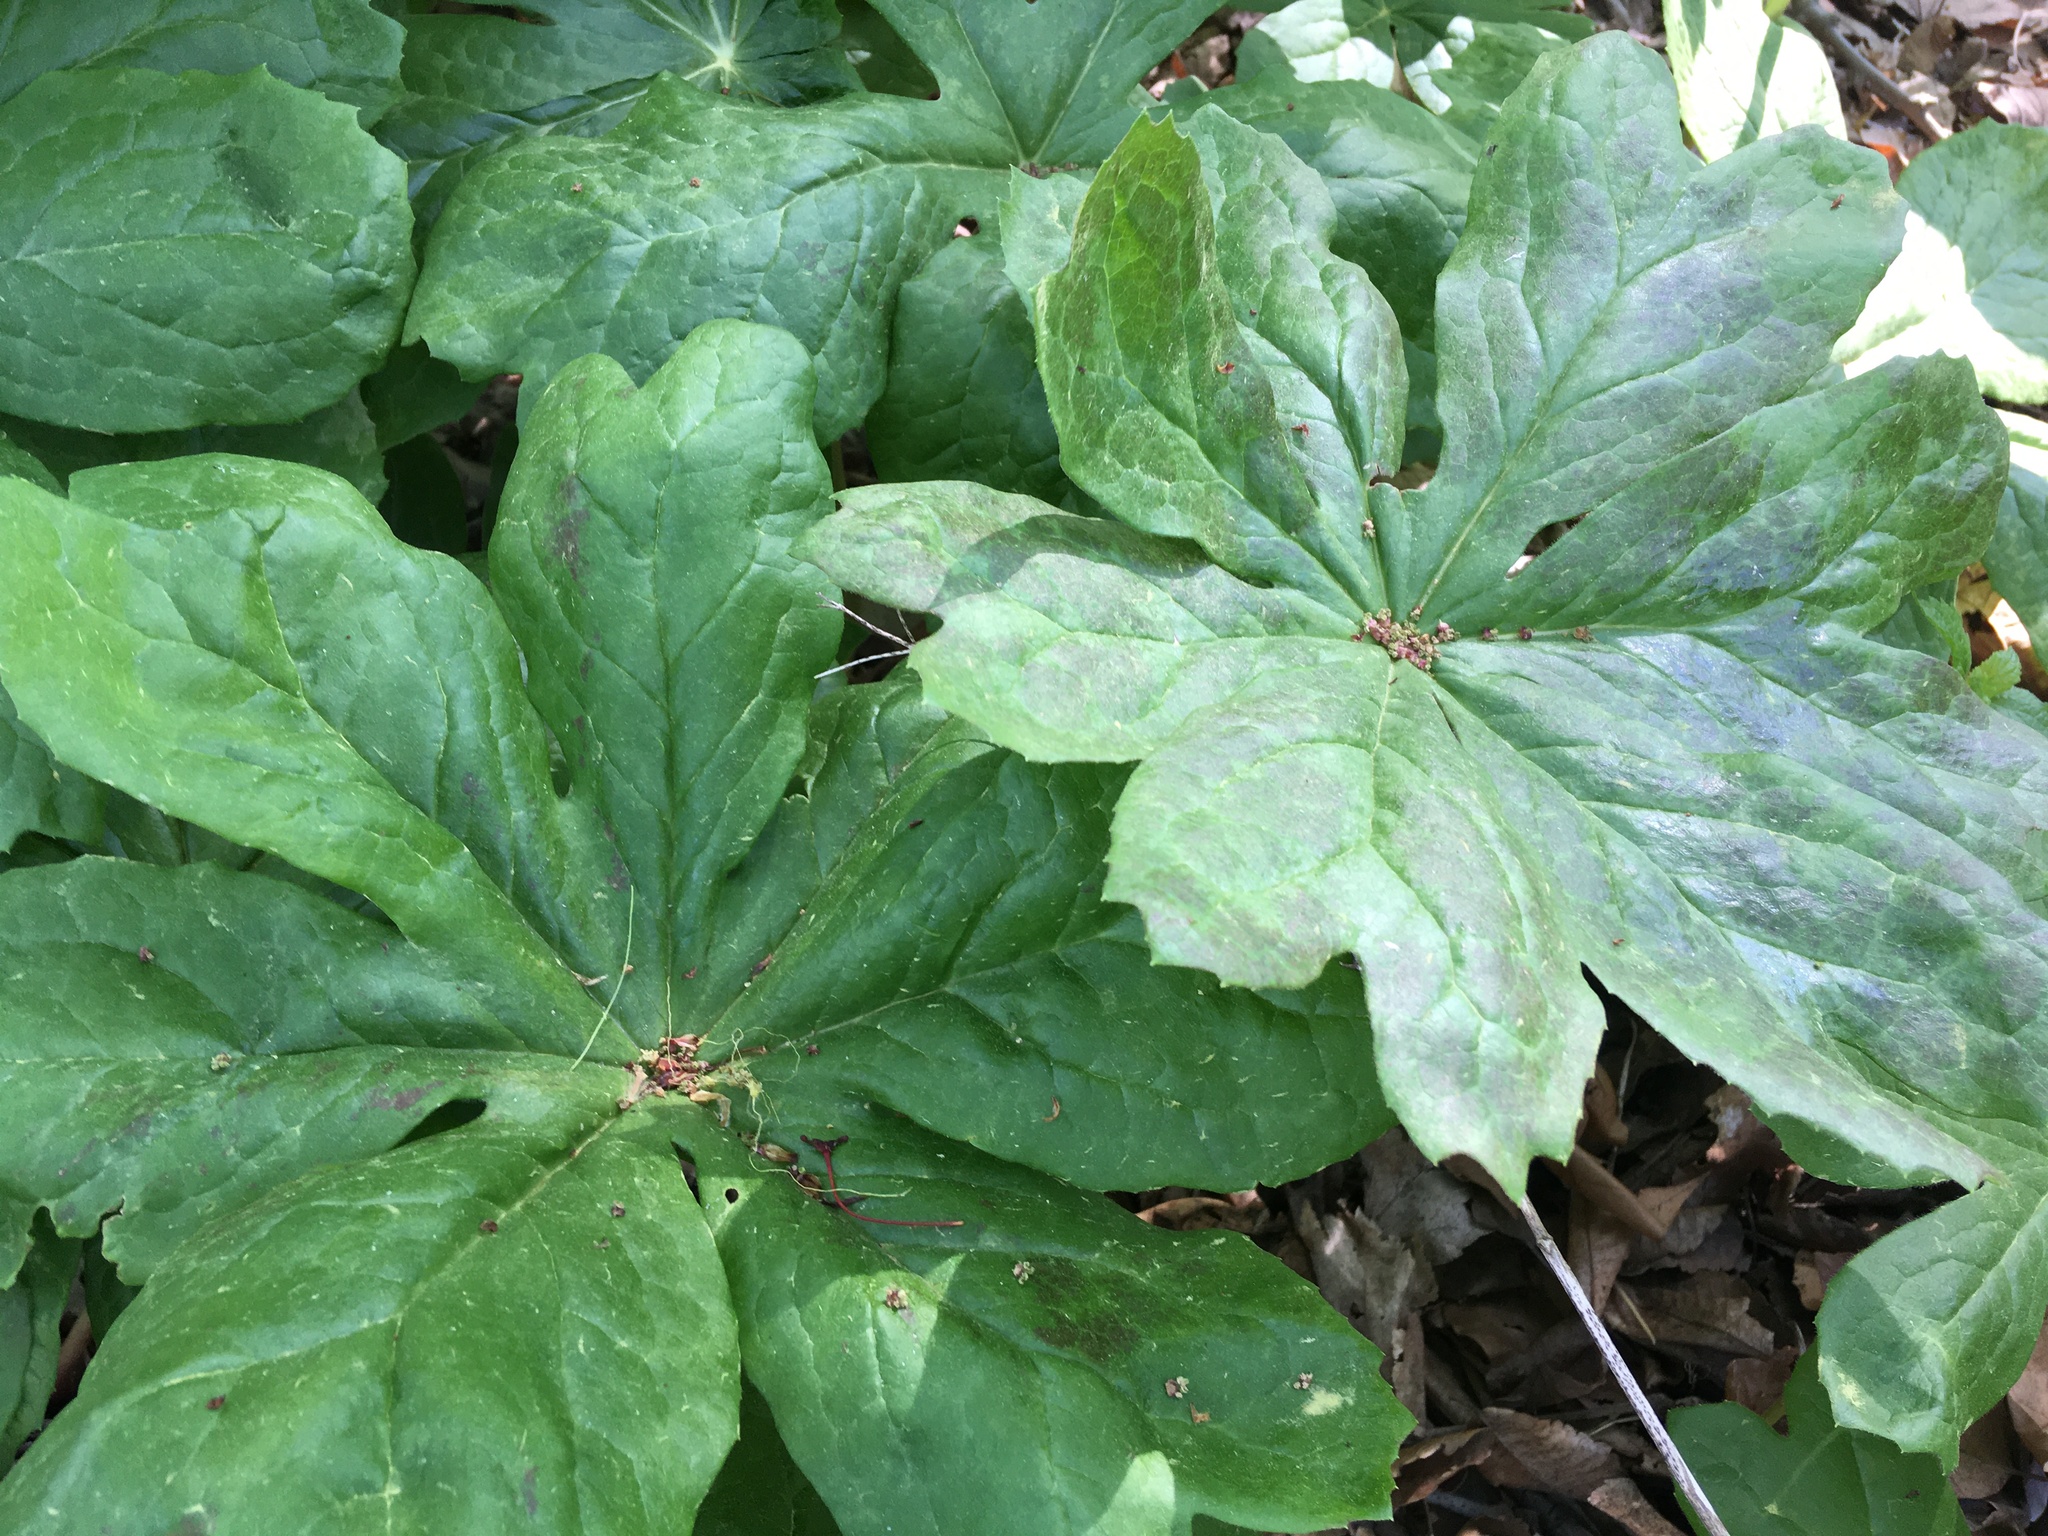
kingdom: Plantae
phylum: Tracheophyta
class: Magnoliopsida
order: Ranunculales
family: Berberidaceae
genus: Podophyllum
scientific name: Podophyllum peltatum
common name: Wild mandrake
